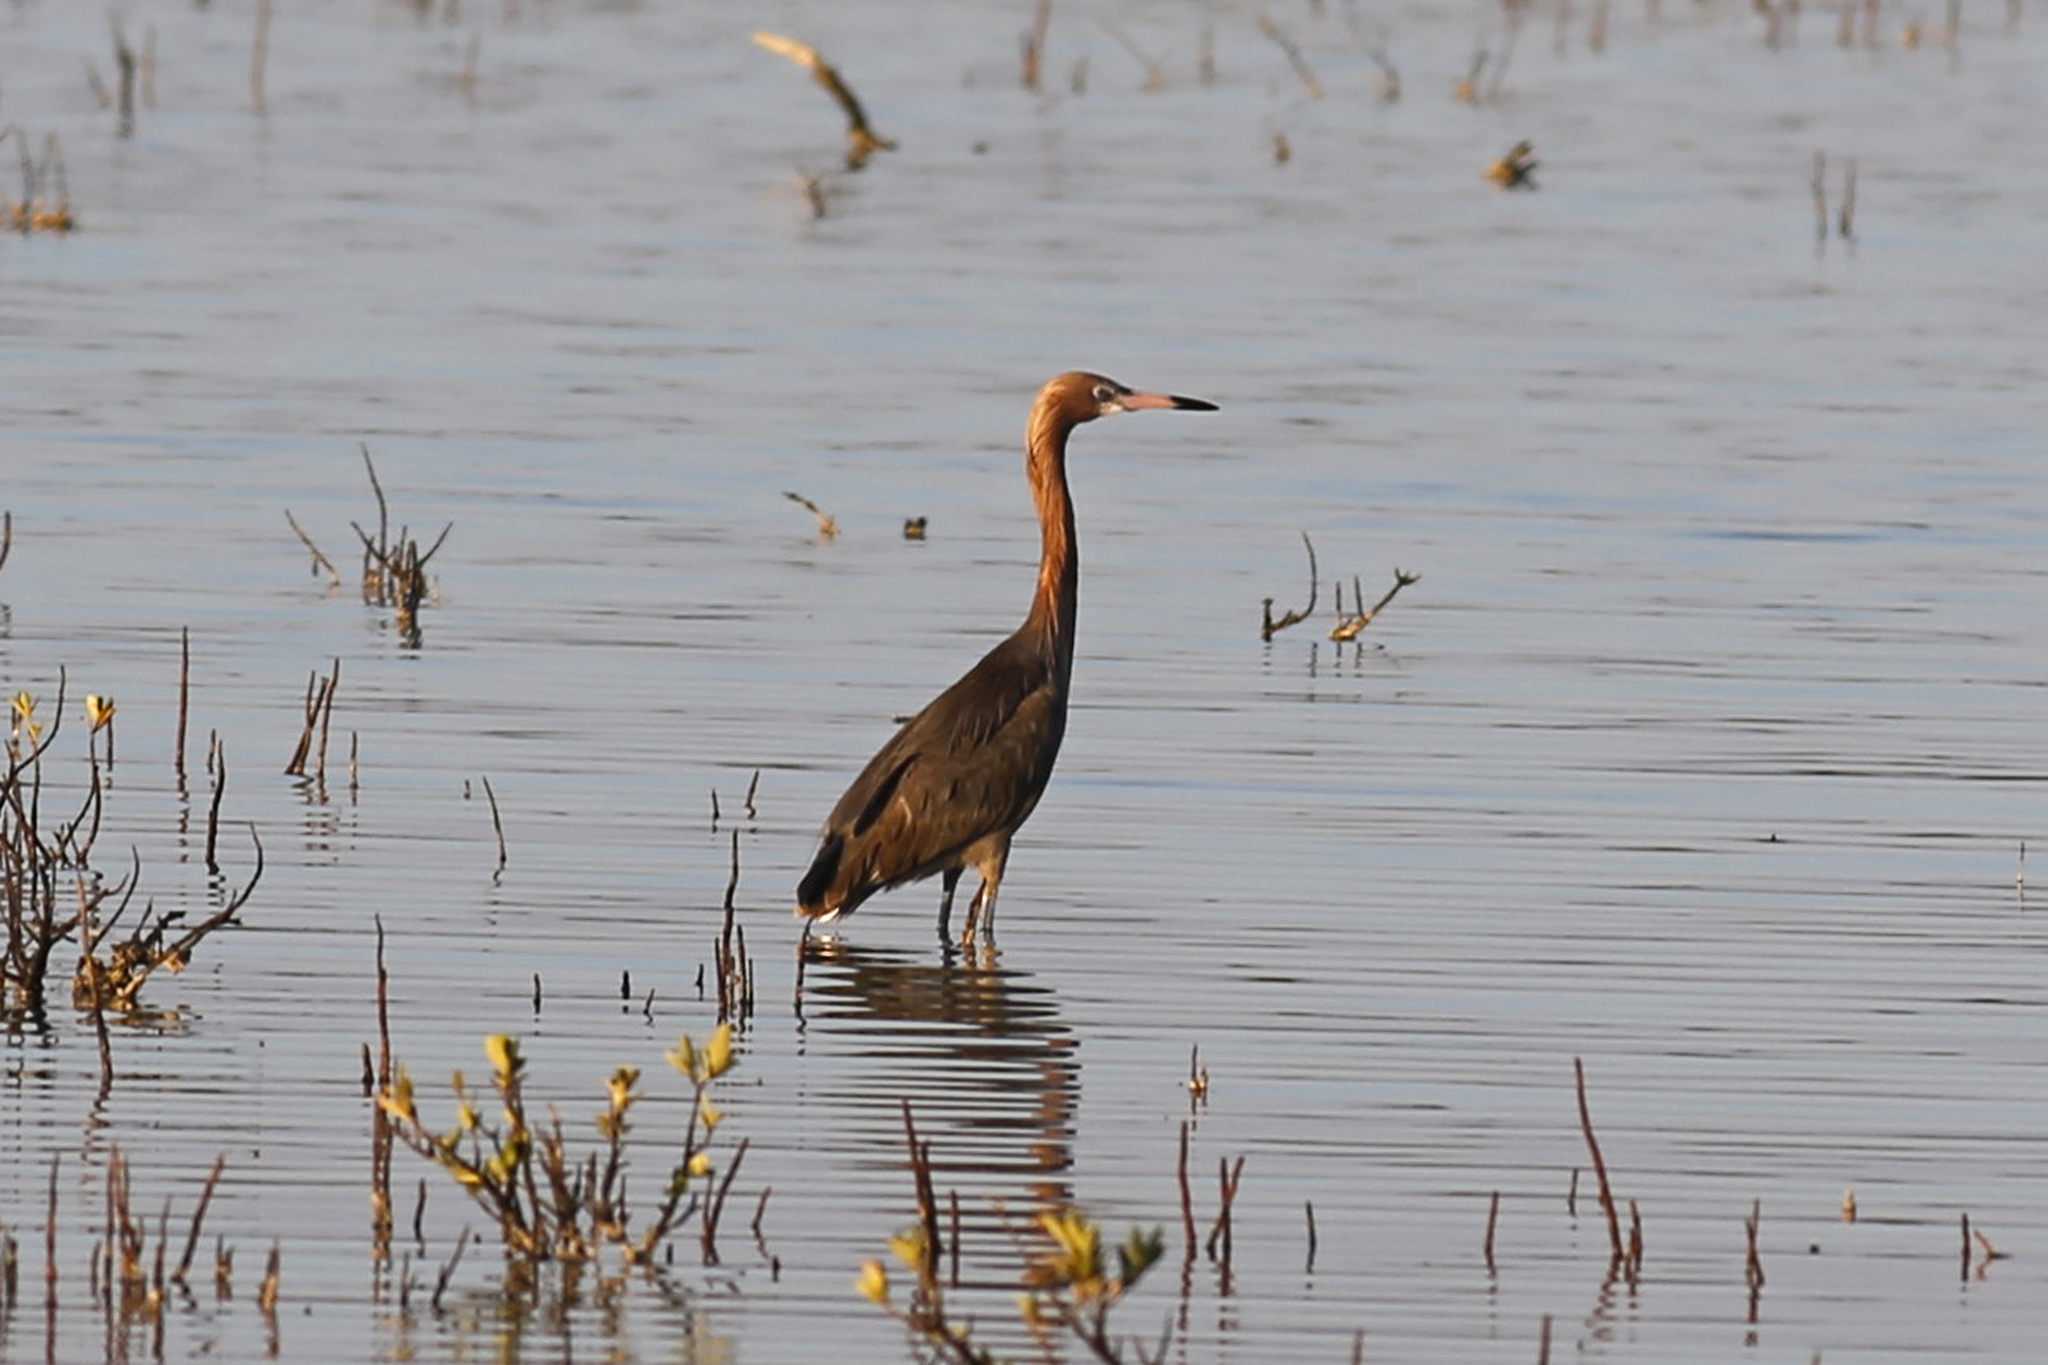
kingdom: Animalia
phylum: Chordata
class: Aves
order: Pelecaniformes
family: Ardeidae
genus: Egretta
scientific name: Egretta rufescens
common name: Reddish egret
